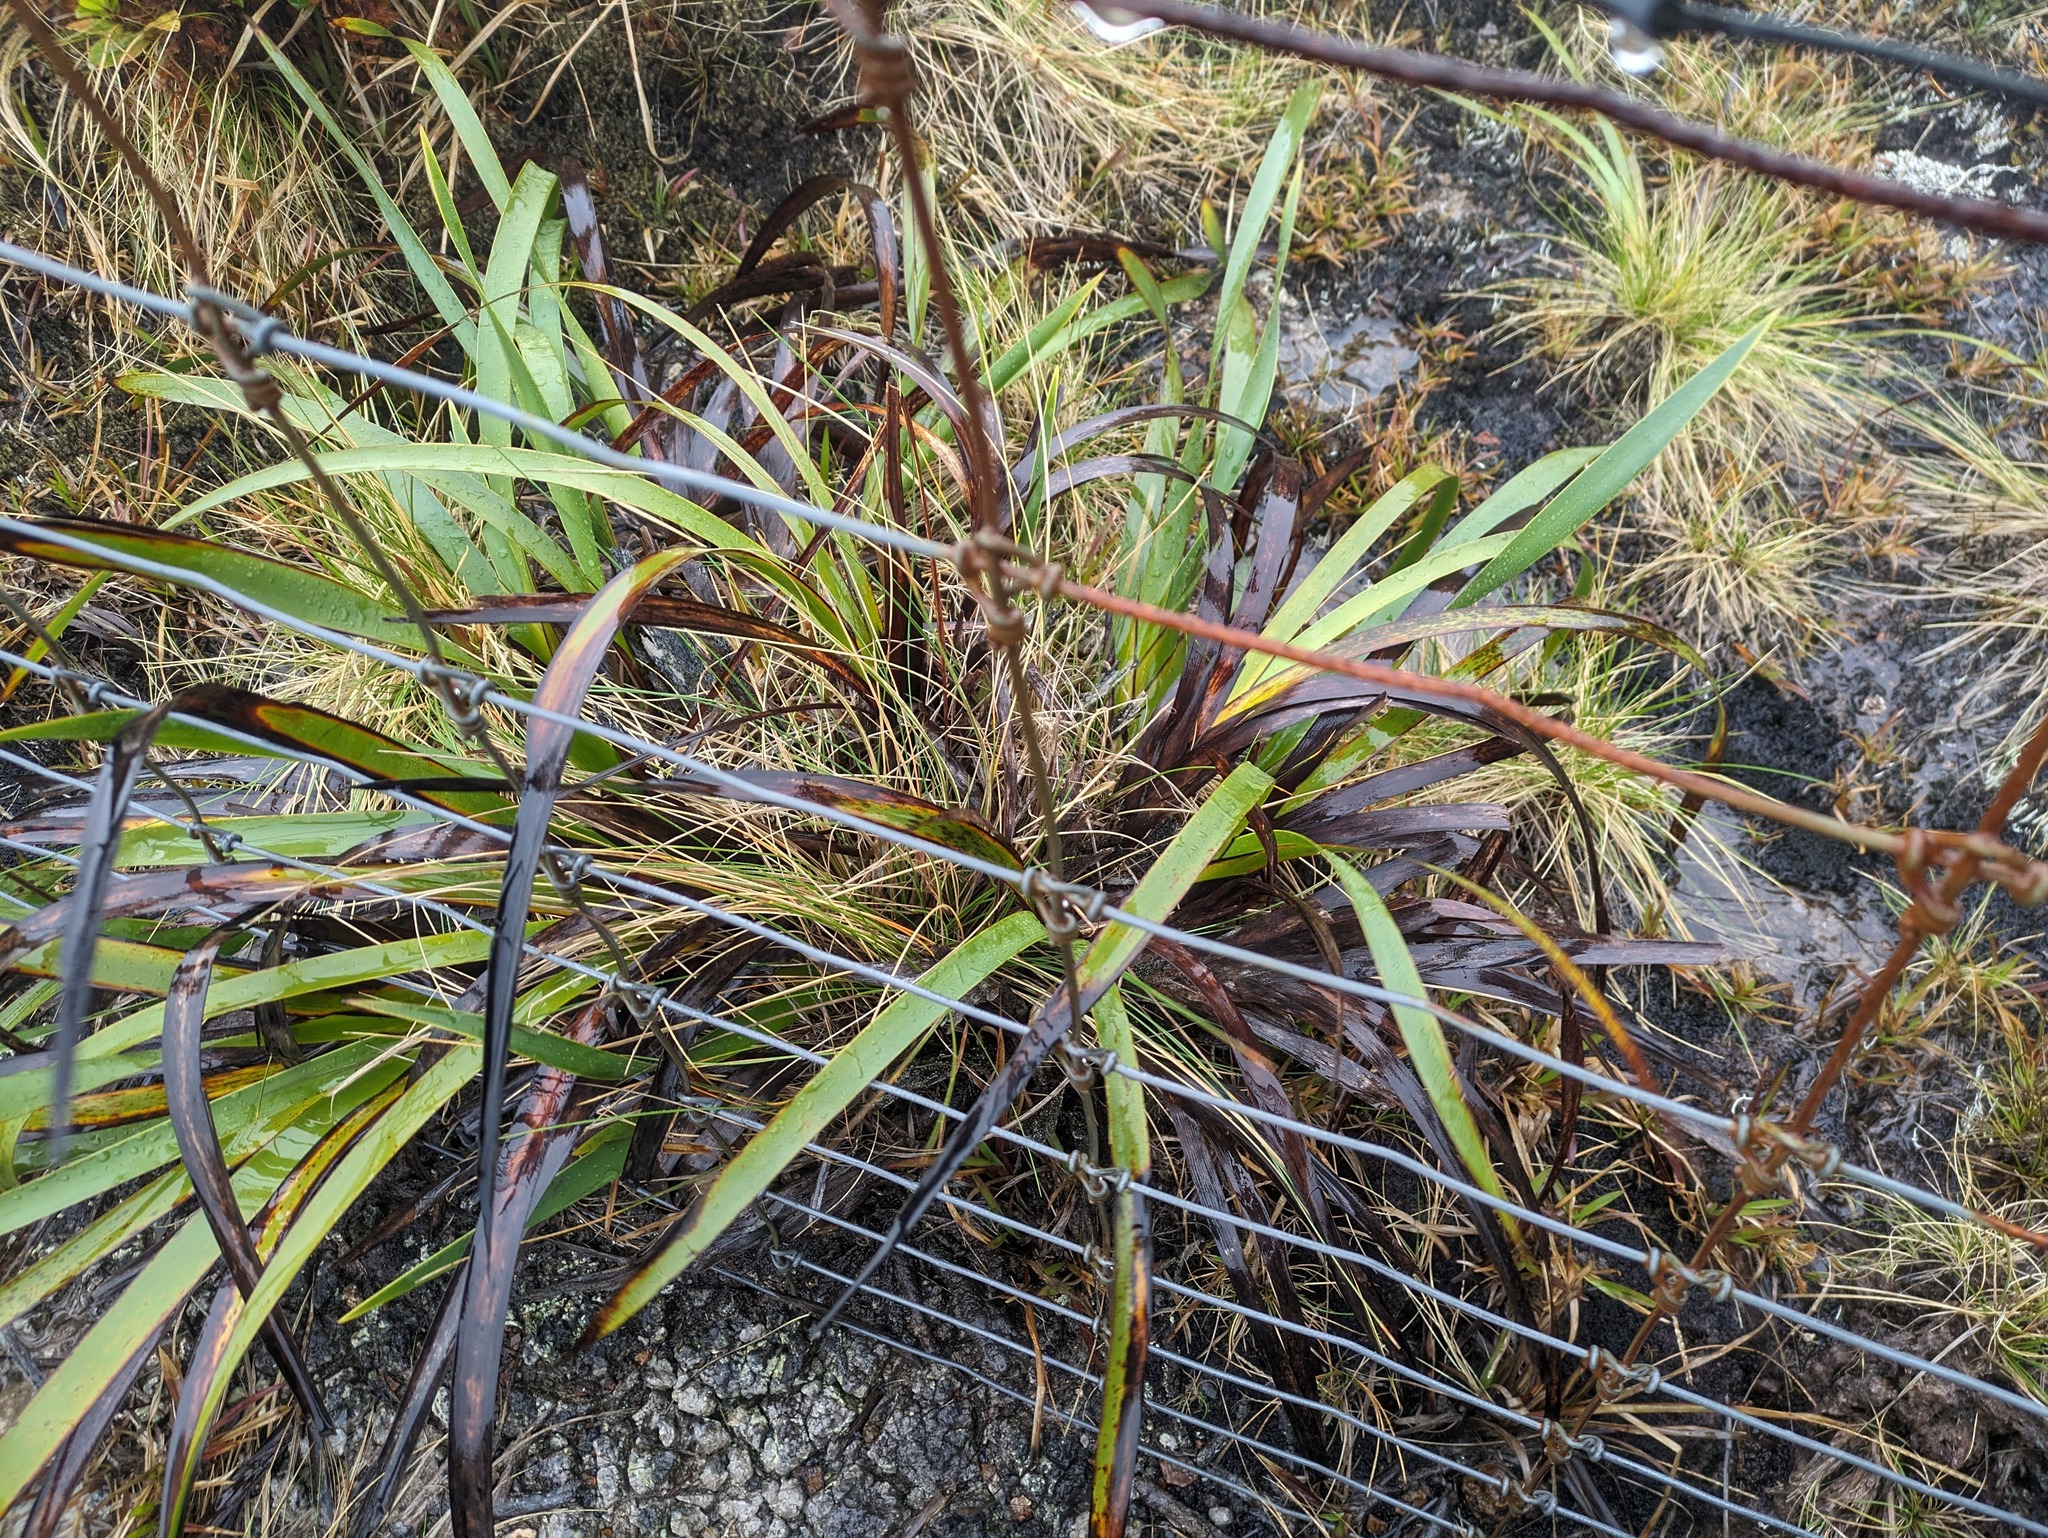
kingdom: Plantae
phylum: Tracheophyta
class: Liliopsida
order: Poales
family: Cyperaceae
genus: Machaerina
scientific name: Machaerina angustifolia
